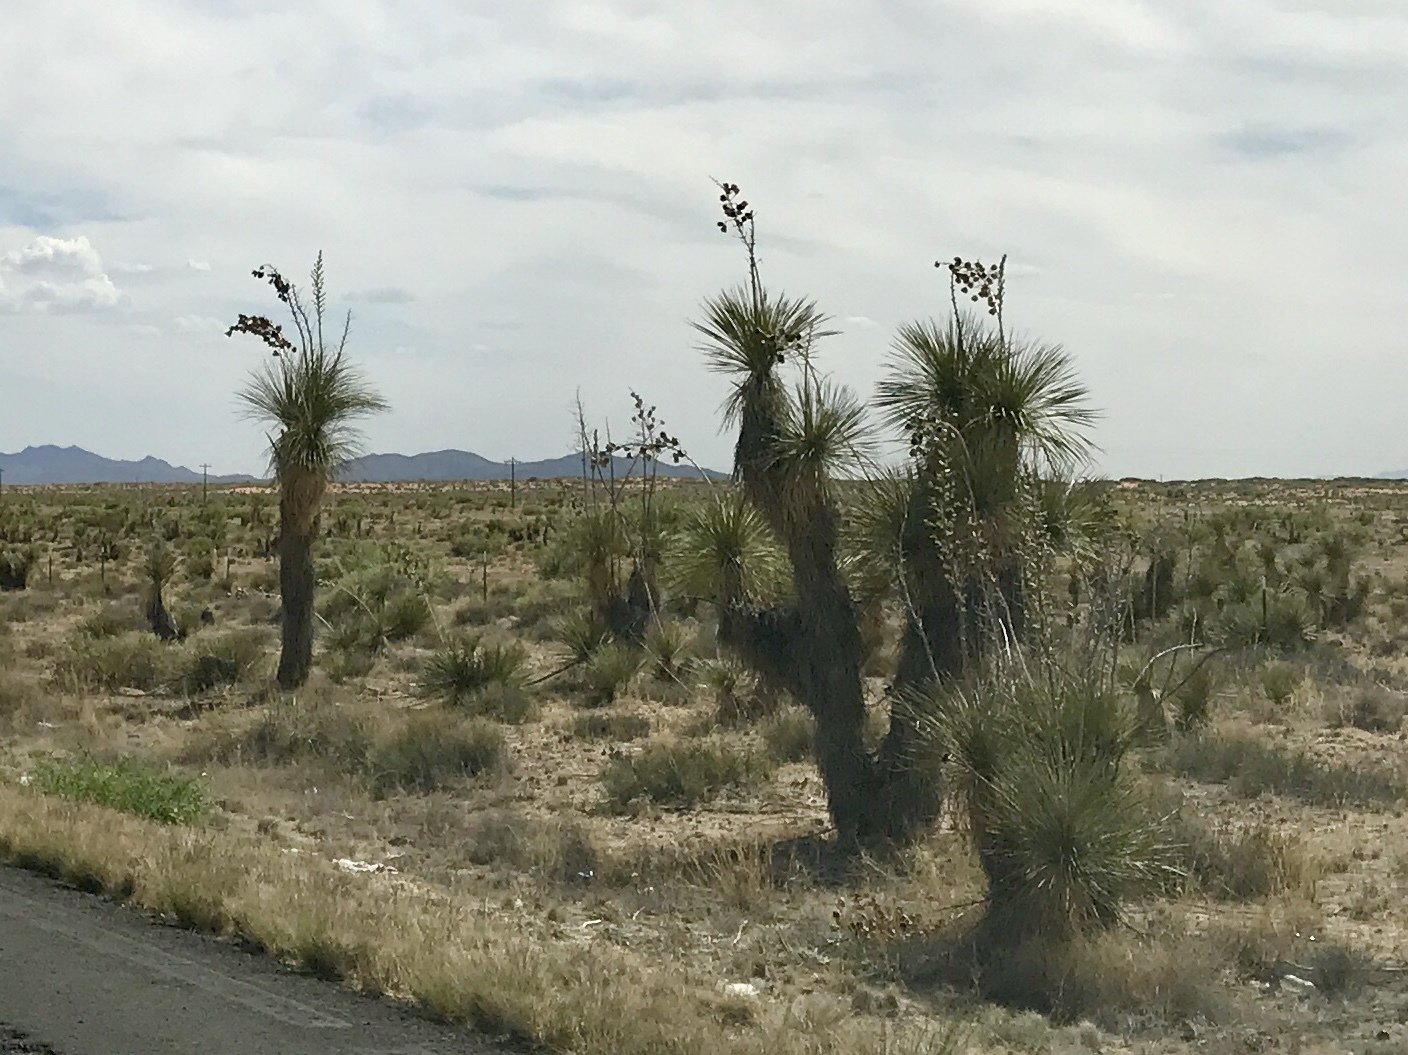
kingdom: Plantae
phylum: Tracheophyta
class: Liliopsida
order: Asparagales
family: Asparagaceae
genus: Yucca
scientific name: Yucca elata
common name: Palmella
